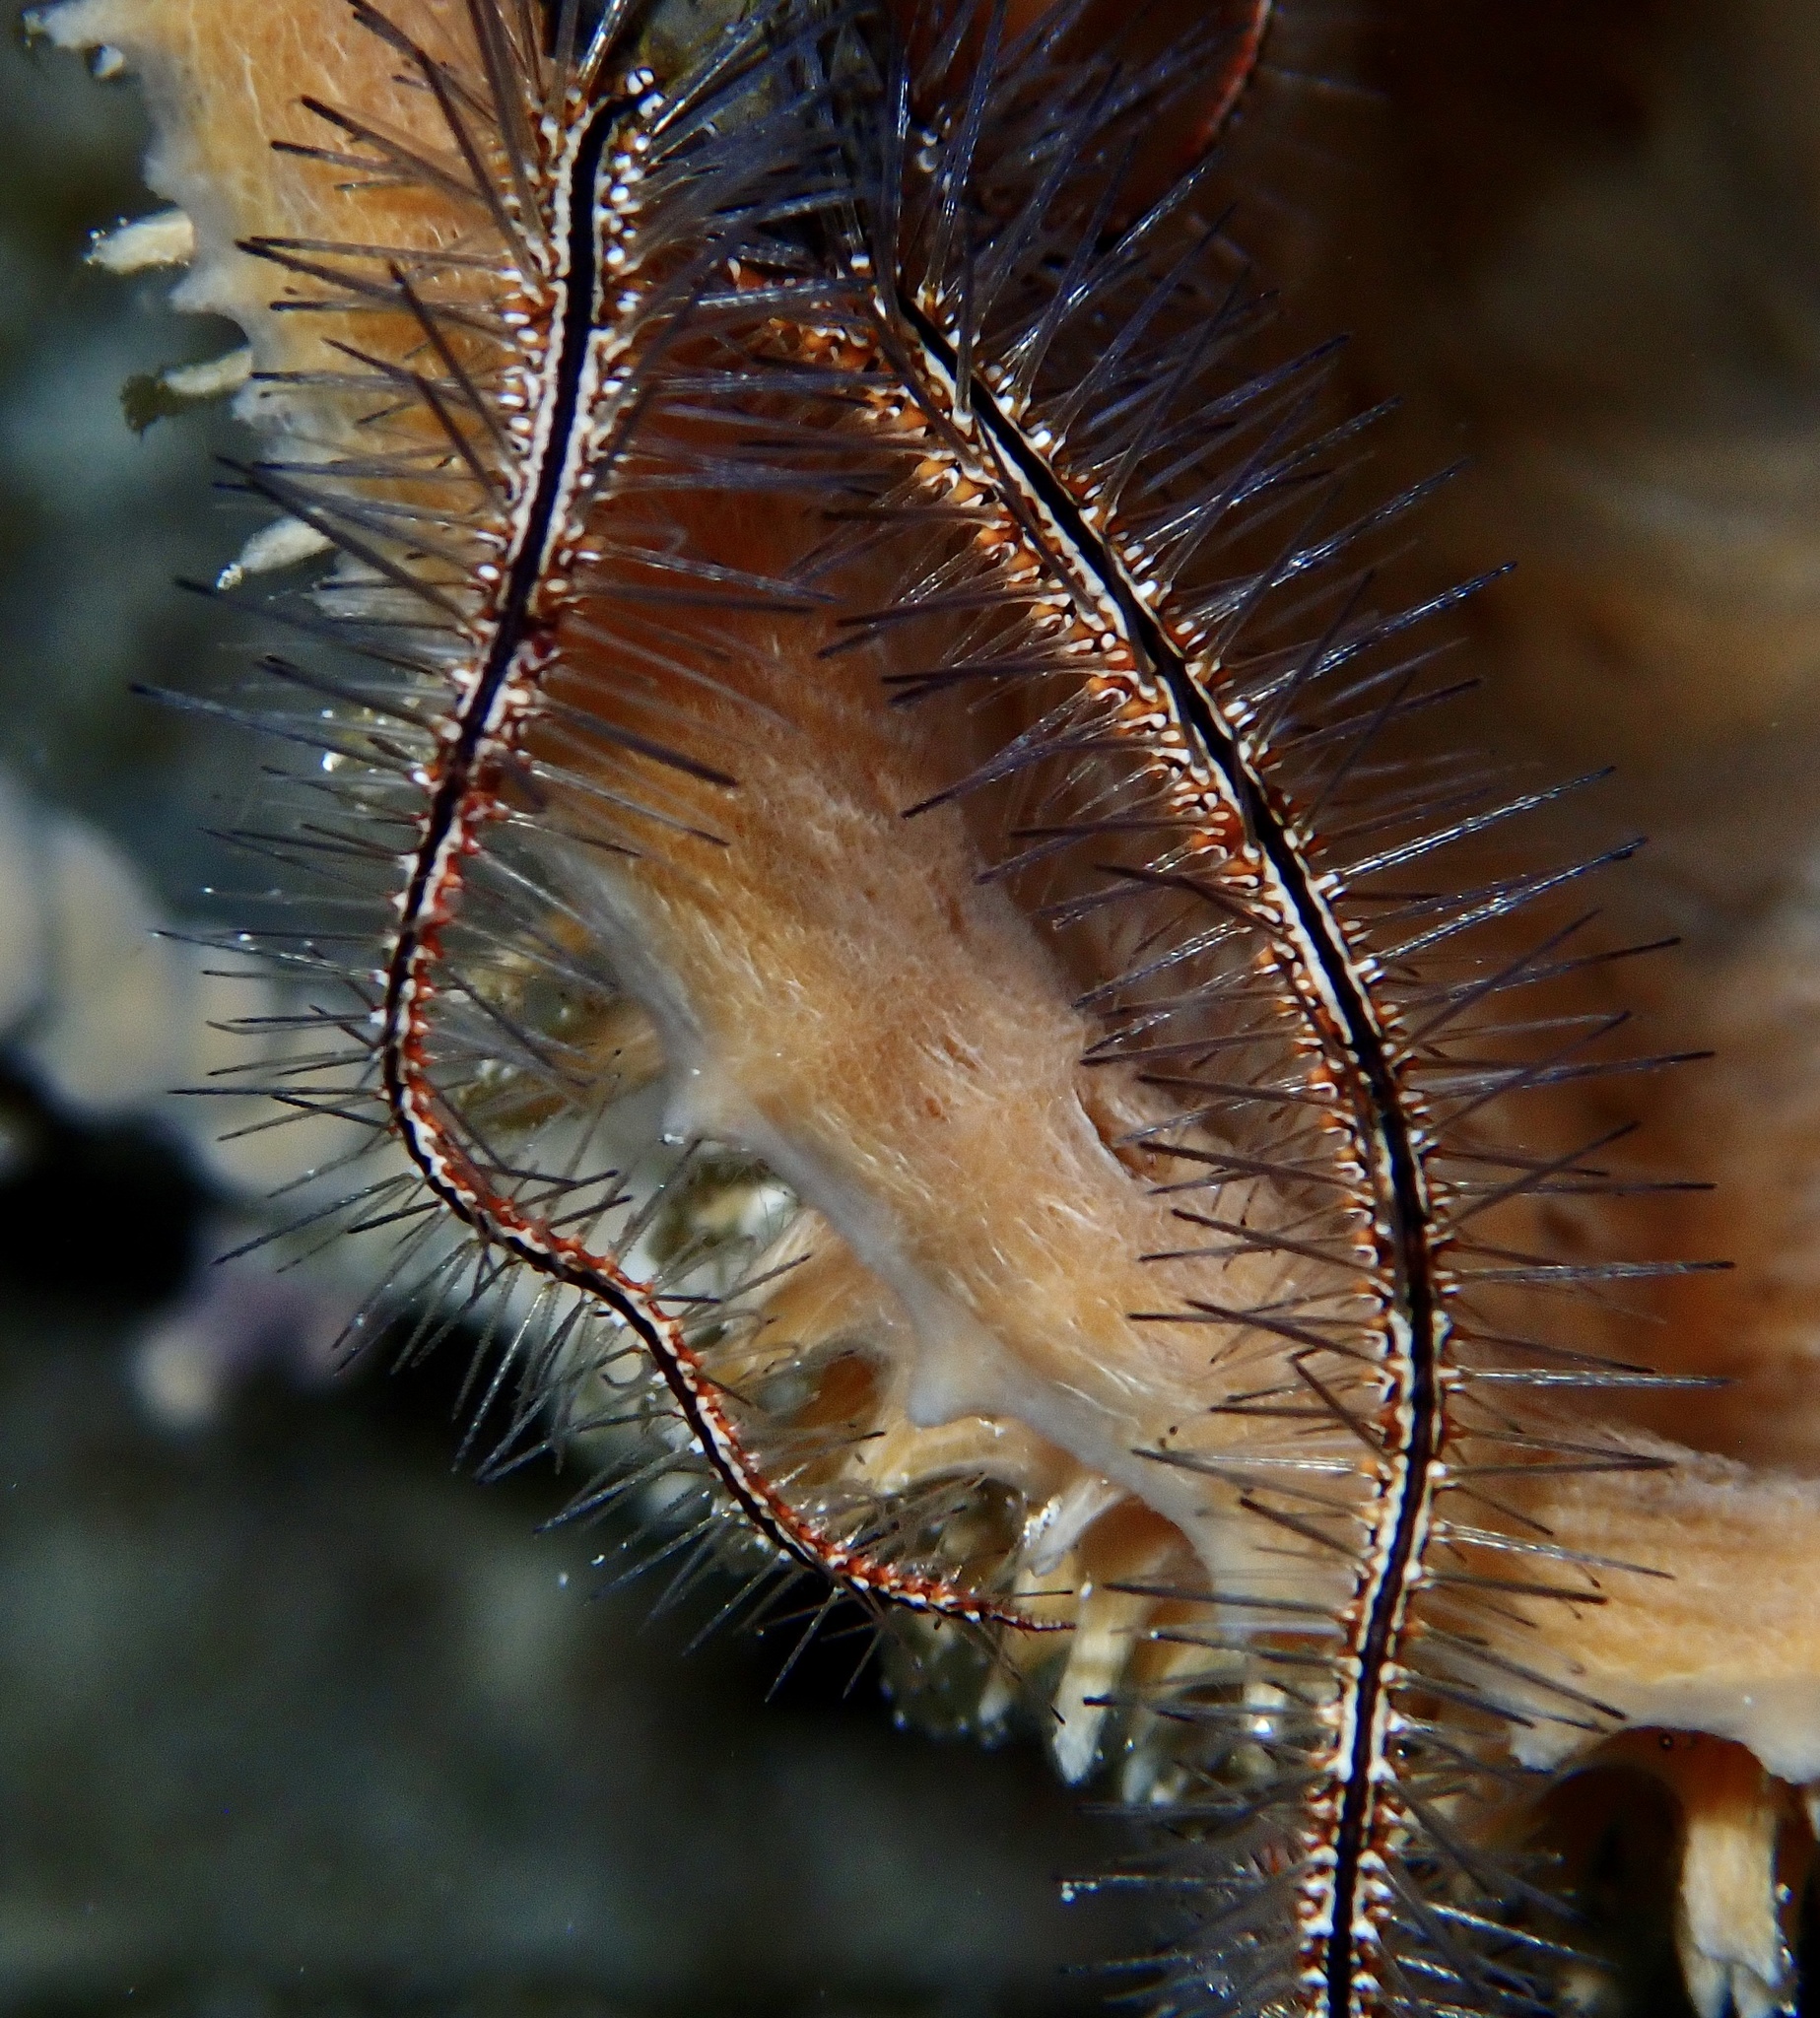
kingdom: Animalia
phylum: Echinodermata
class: Ophiuroidea
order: Amphilepidida
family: Ophiotrichidae
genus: Ophiothrix
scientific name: Ophiothrix suensonii
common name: Sponge brittle star
